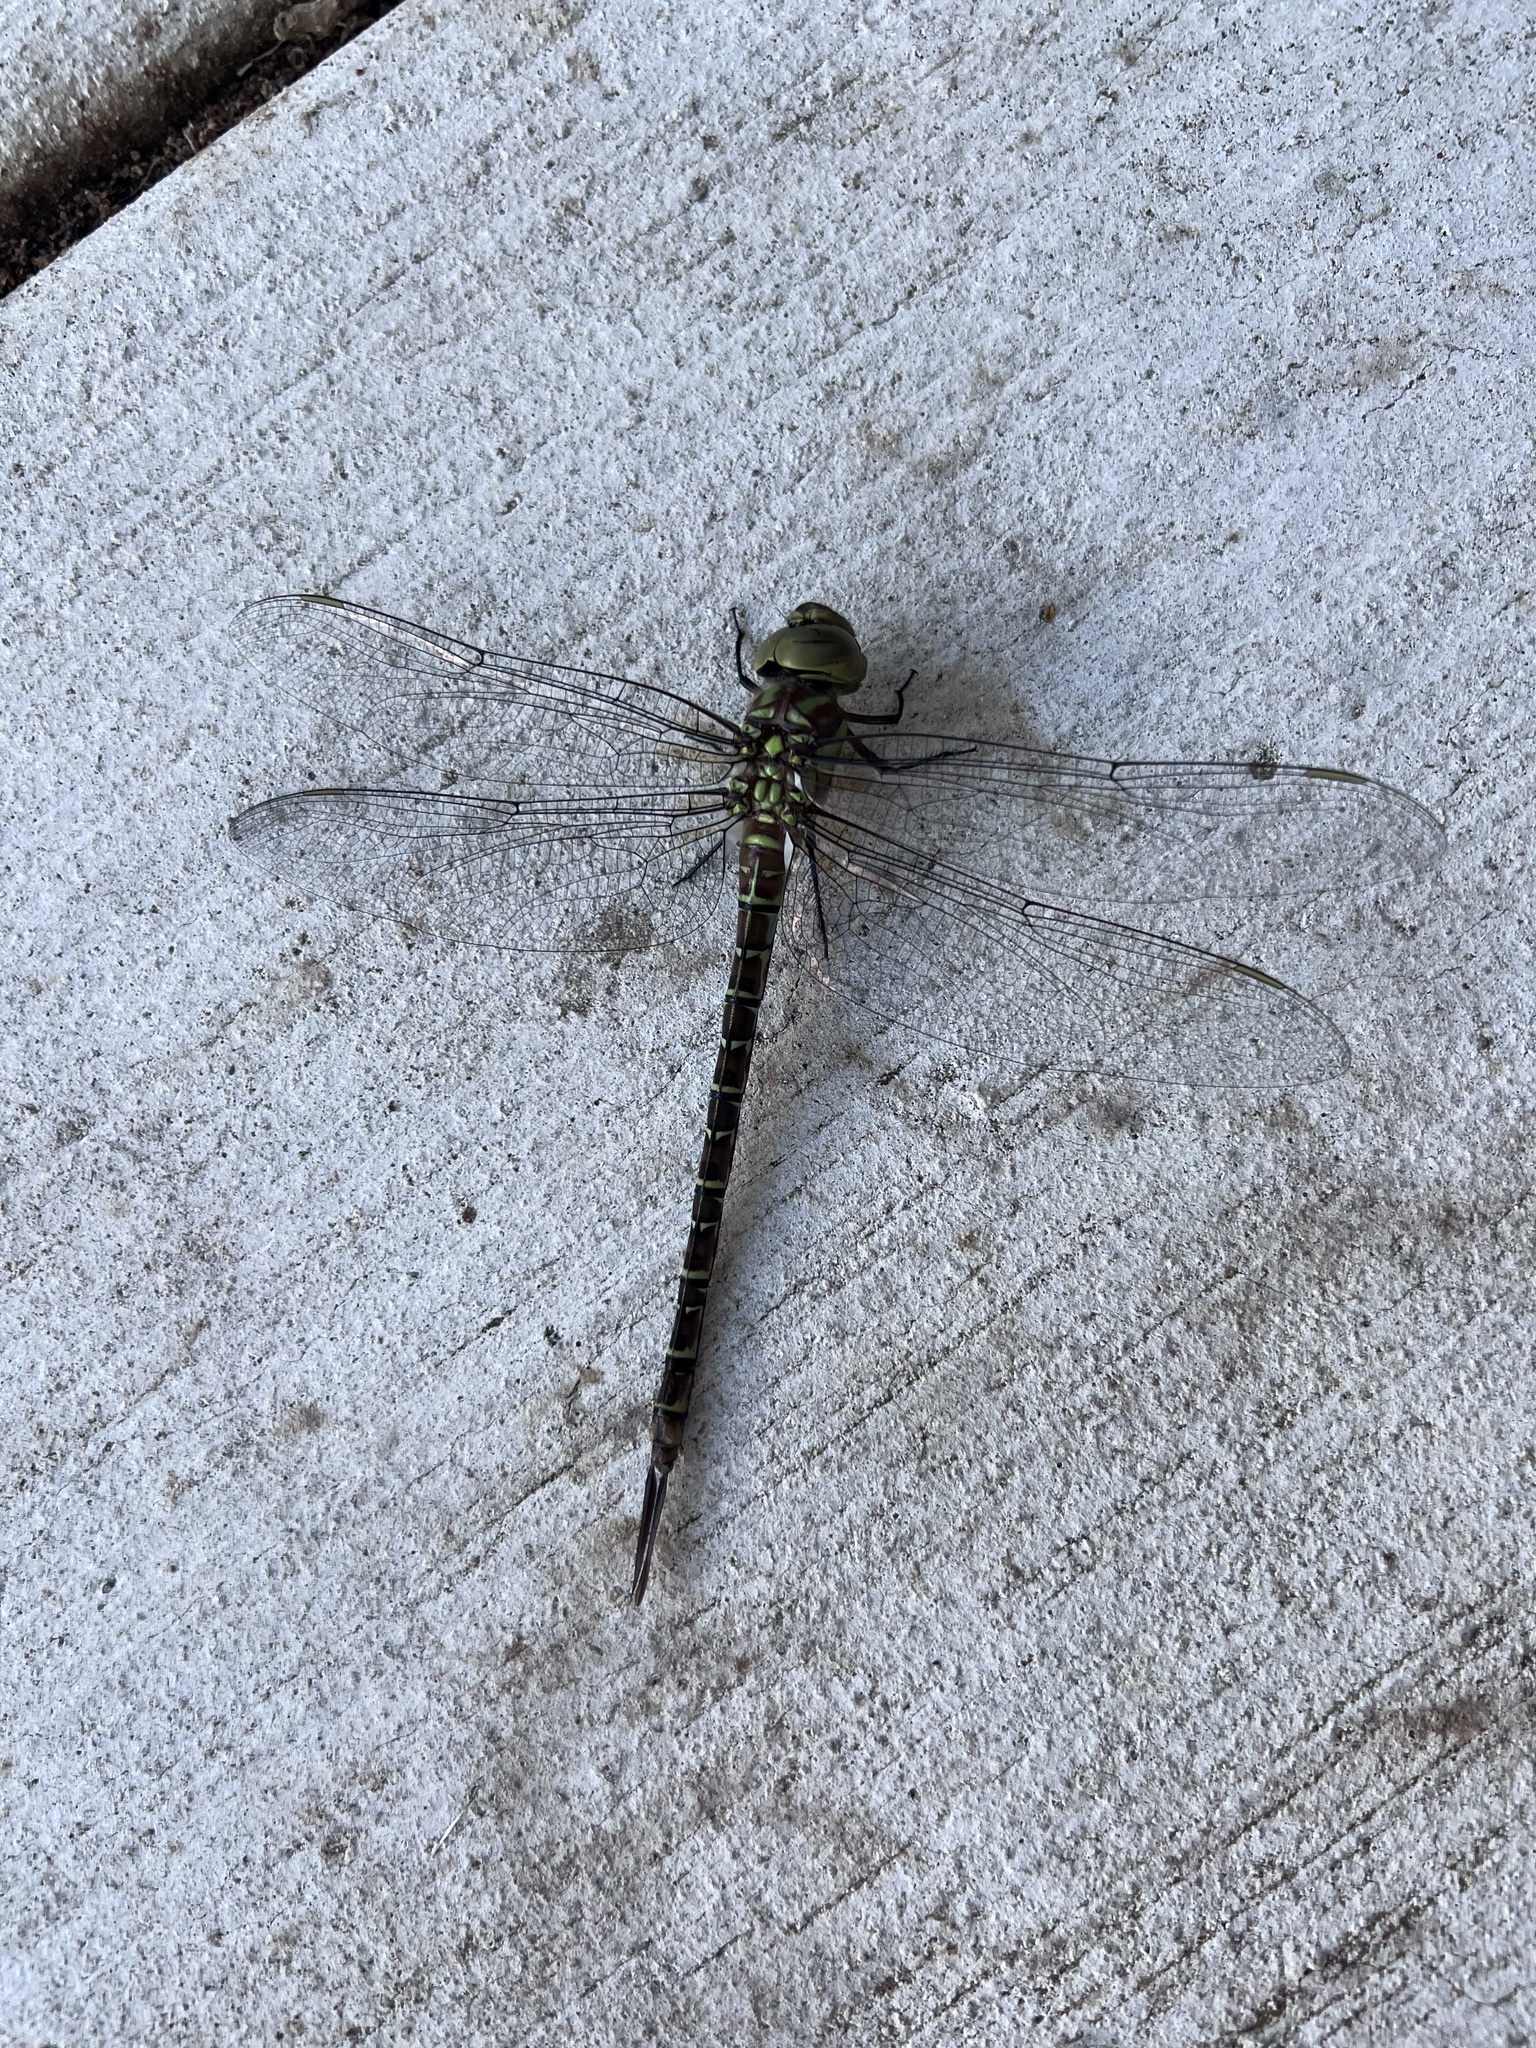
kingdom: Animalia
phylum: Arthropoda
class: Insecta
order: Odonata
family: Aeshnidae
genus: Coryphaeschna
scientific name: Coryphaeschna ingens
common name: Regal darner
